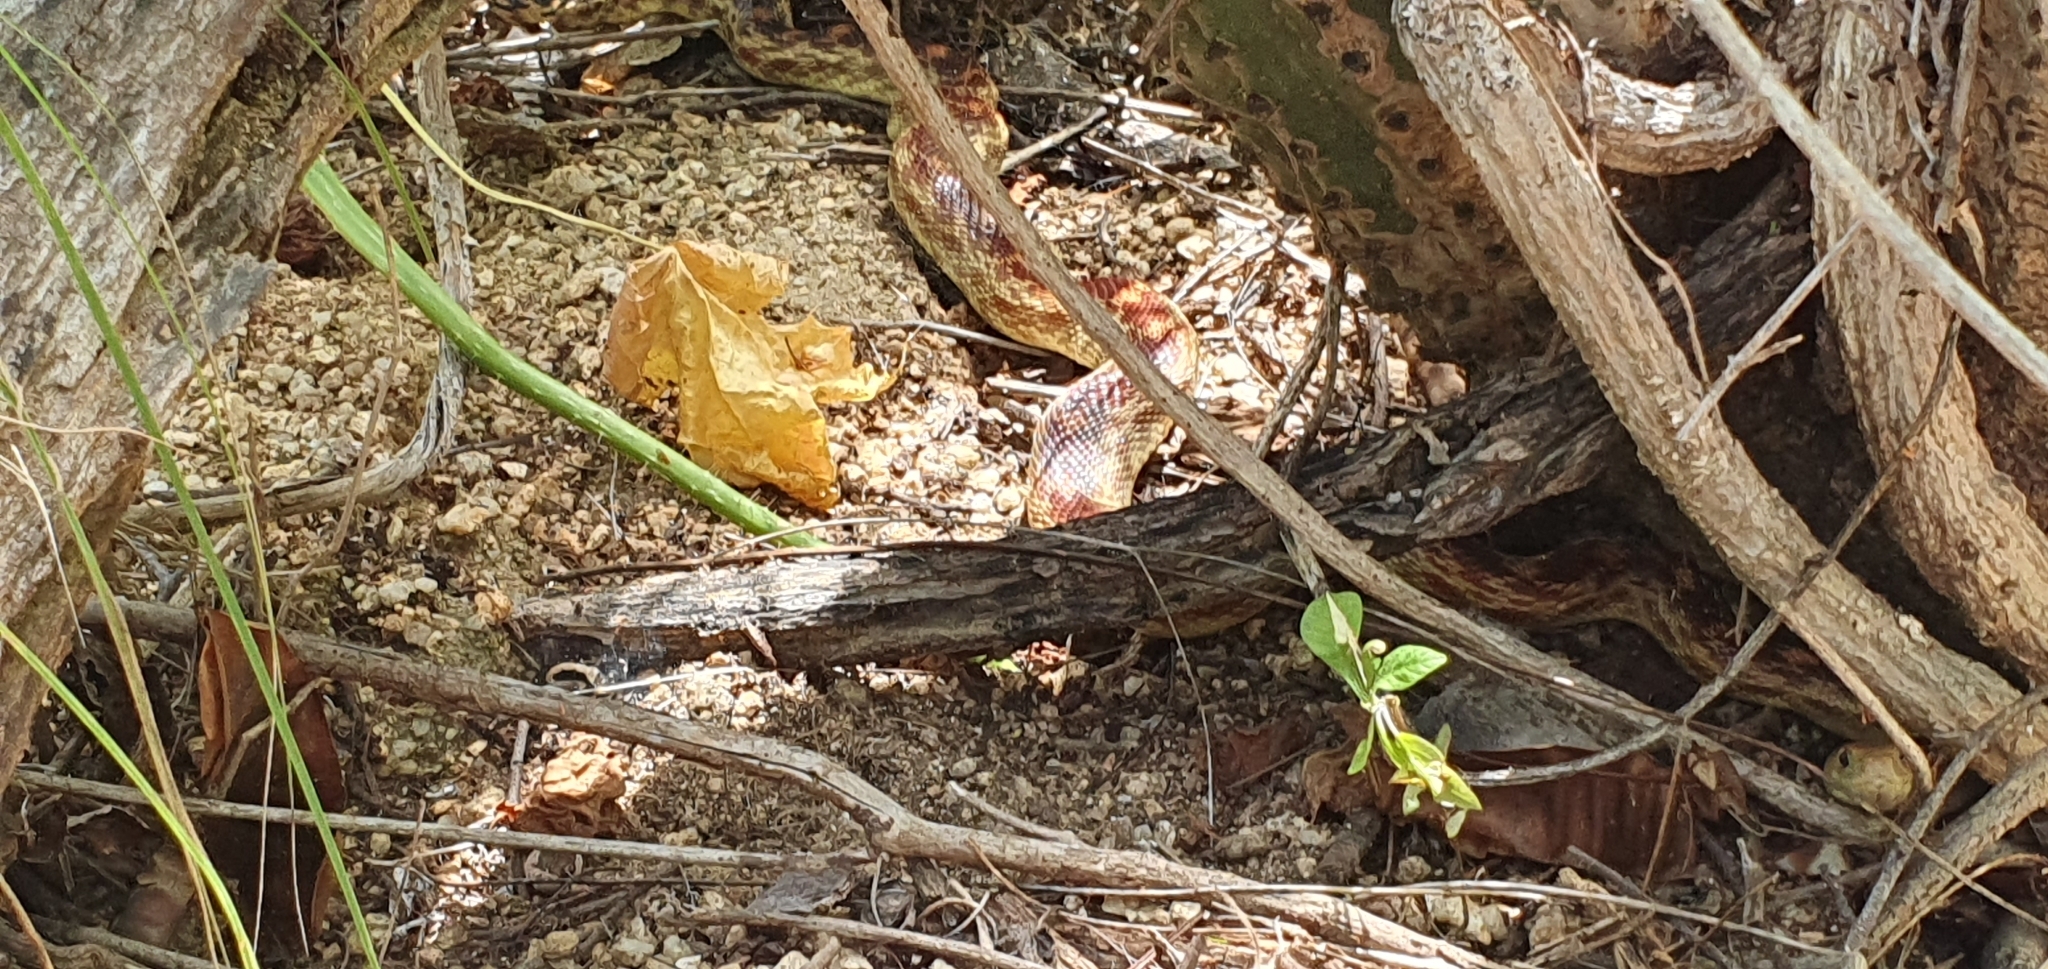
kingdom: Animalia
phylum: Chordata
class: Squamata
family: Colubridae
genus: Pituophis
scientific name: Pituophis vertebralis
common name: Cape gopher snake
